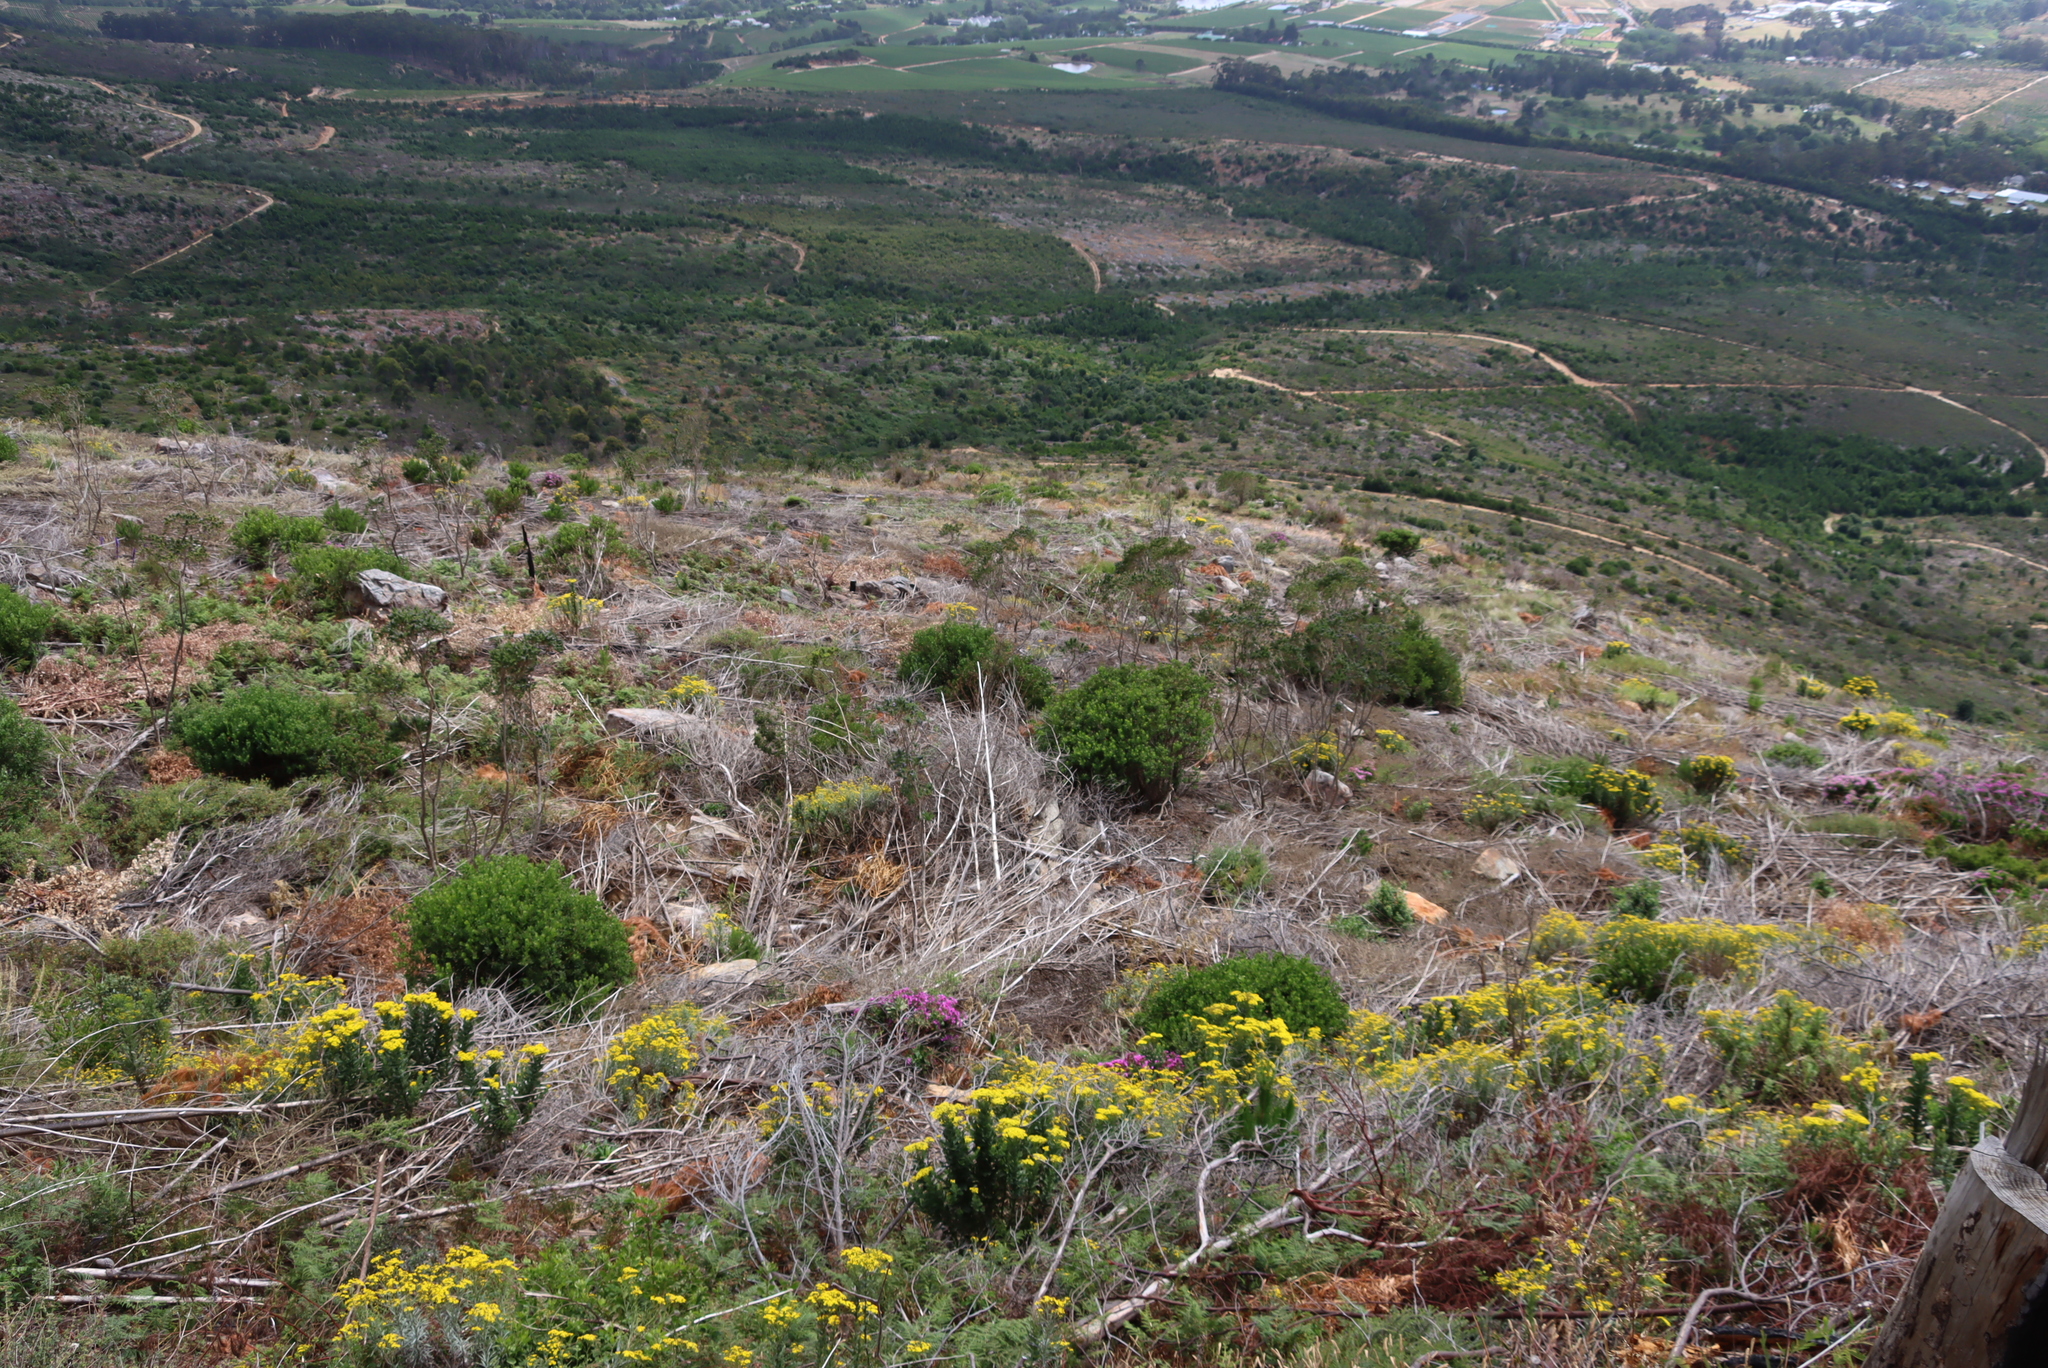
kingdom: Plantae
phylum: Tracheophyta
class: Magnoliopsida
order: Fabales
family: Fabaceae
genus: Psoralea
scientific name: Psoralea pinnata
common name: African scurfpea
